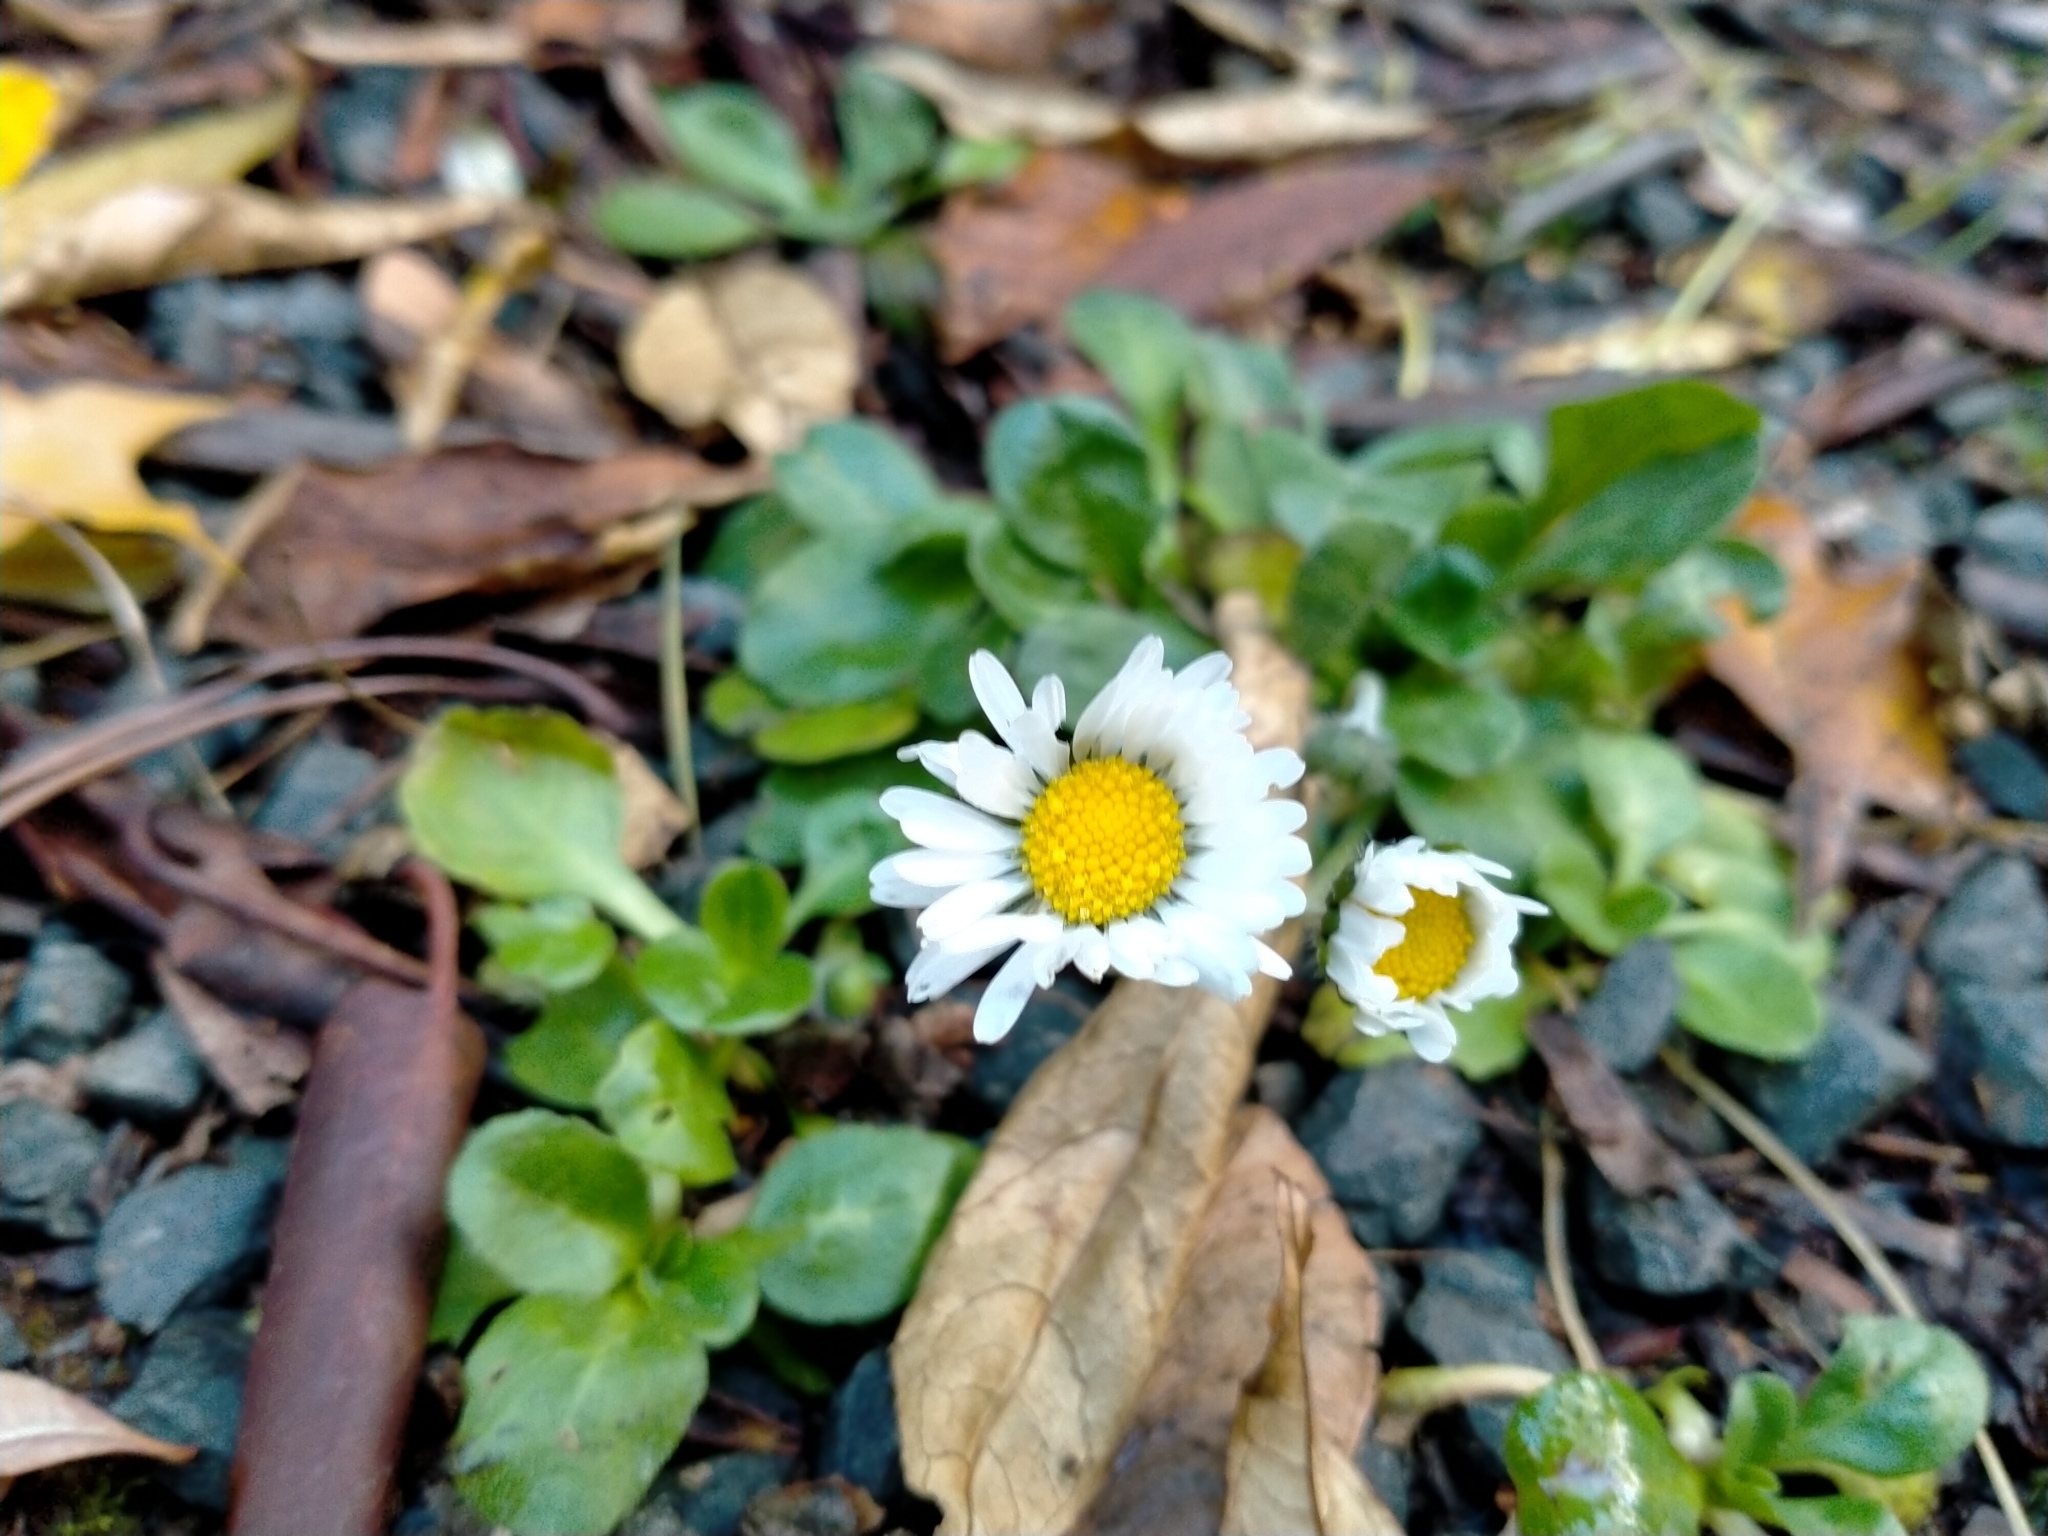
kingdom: Plantae
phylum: Tracheophyta
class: Magnoliopsida
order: Asterales
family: Asteraceae
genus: Bellis
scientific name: Bellis perennis
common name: Lawndaisy
